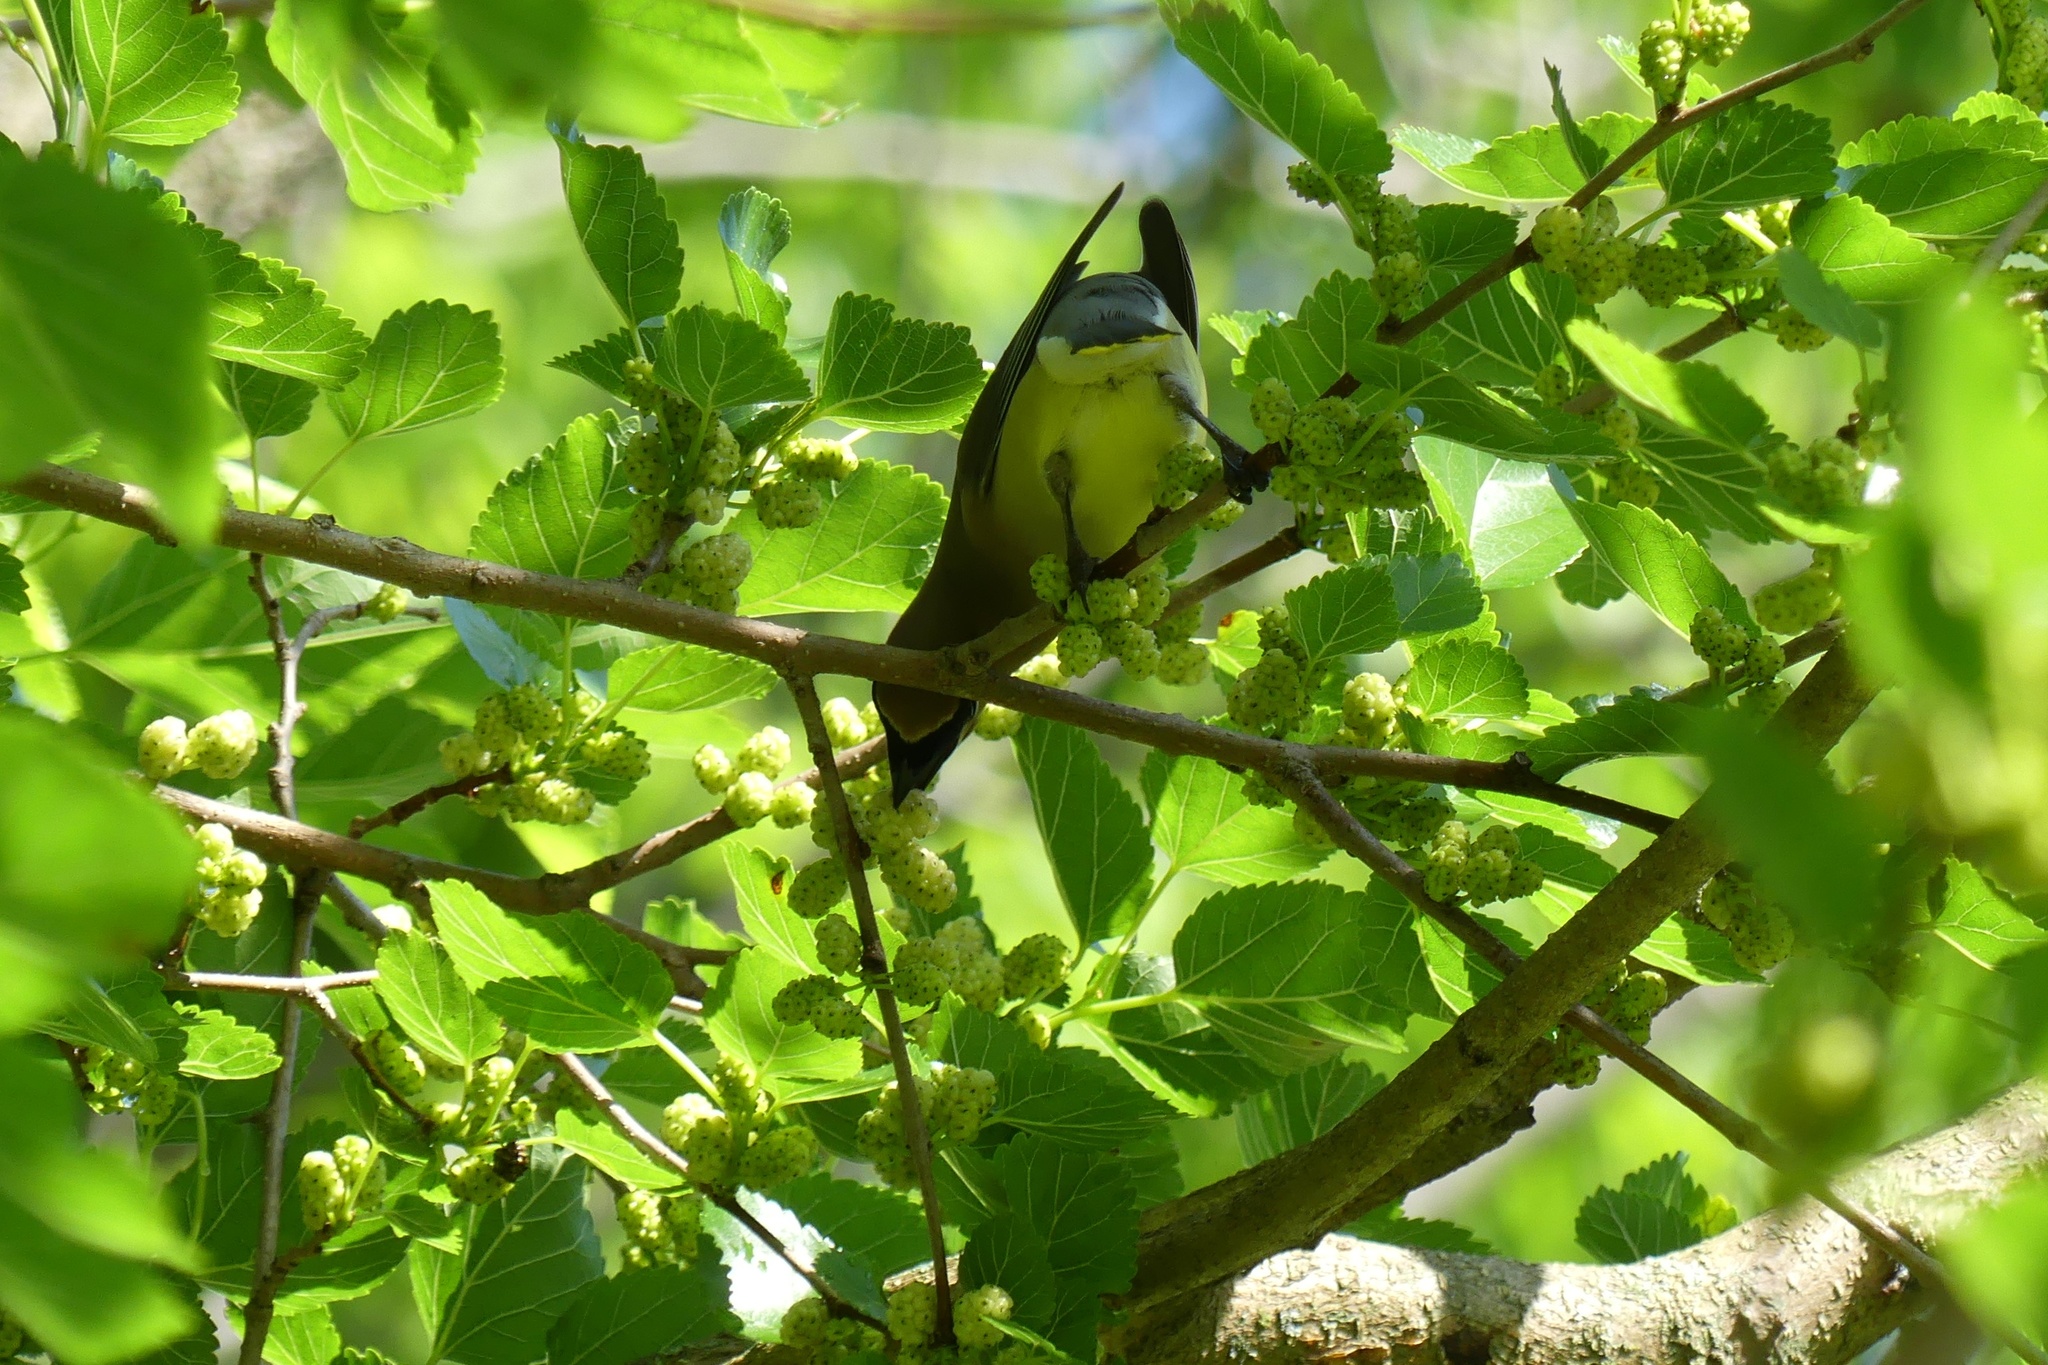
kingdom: Animalia
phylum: Chordata
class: Aves
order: Passeriformes
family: Bombycillidae
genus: Bombycilla
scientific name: Bombycilla cedrorum
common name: Cedar waxwing
